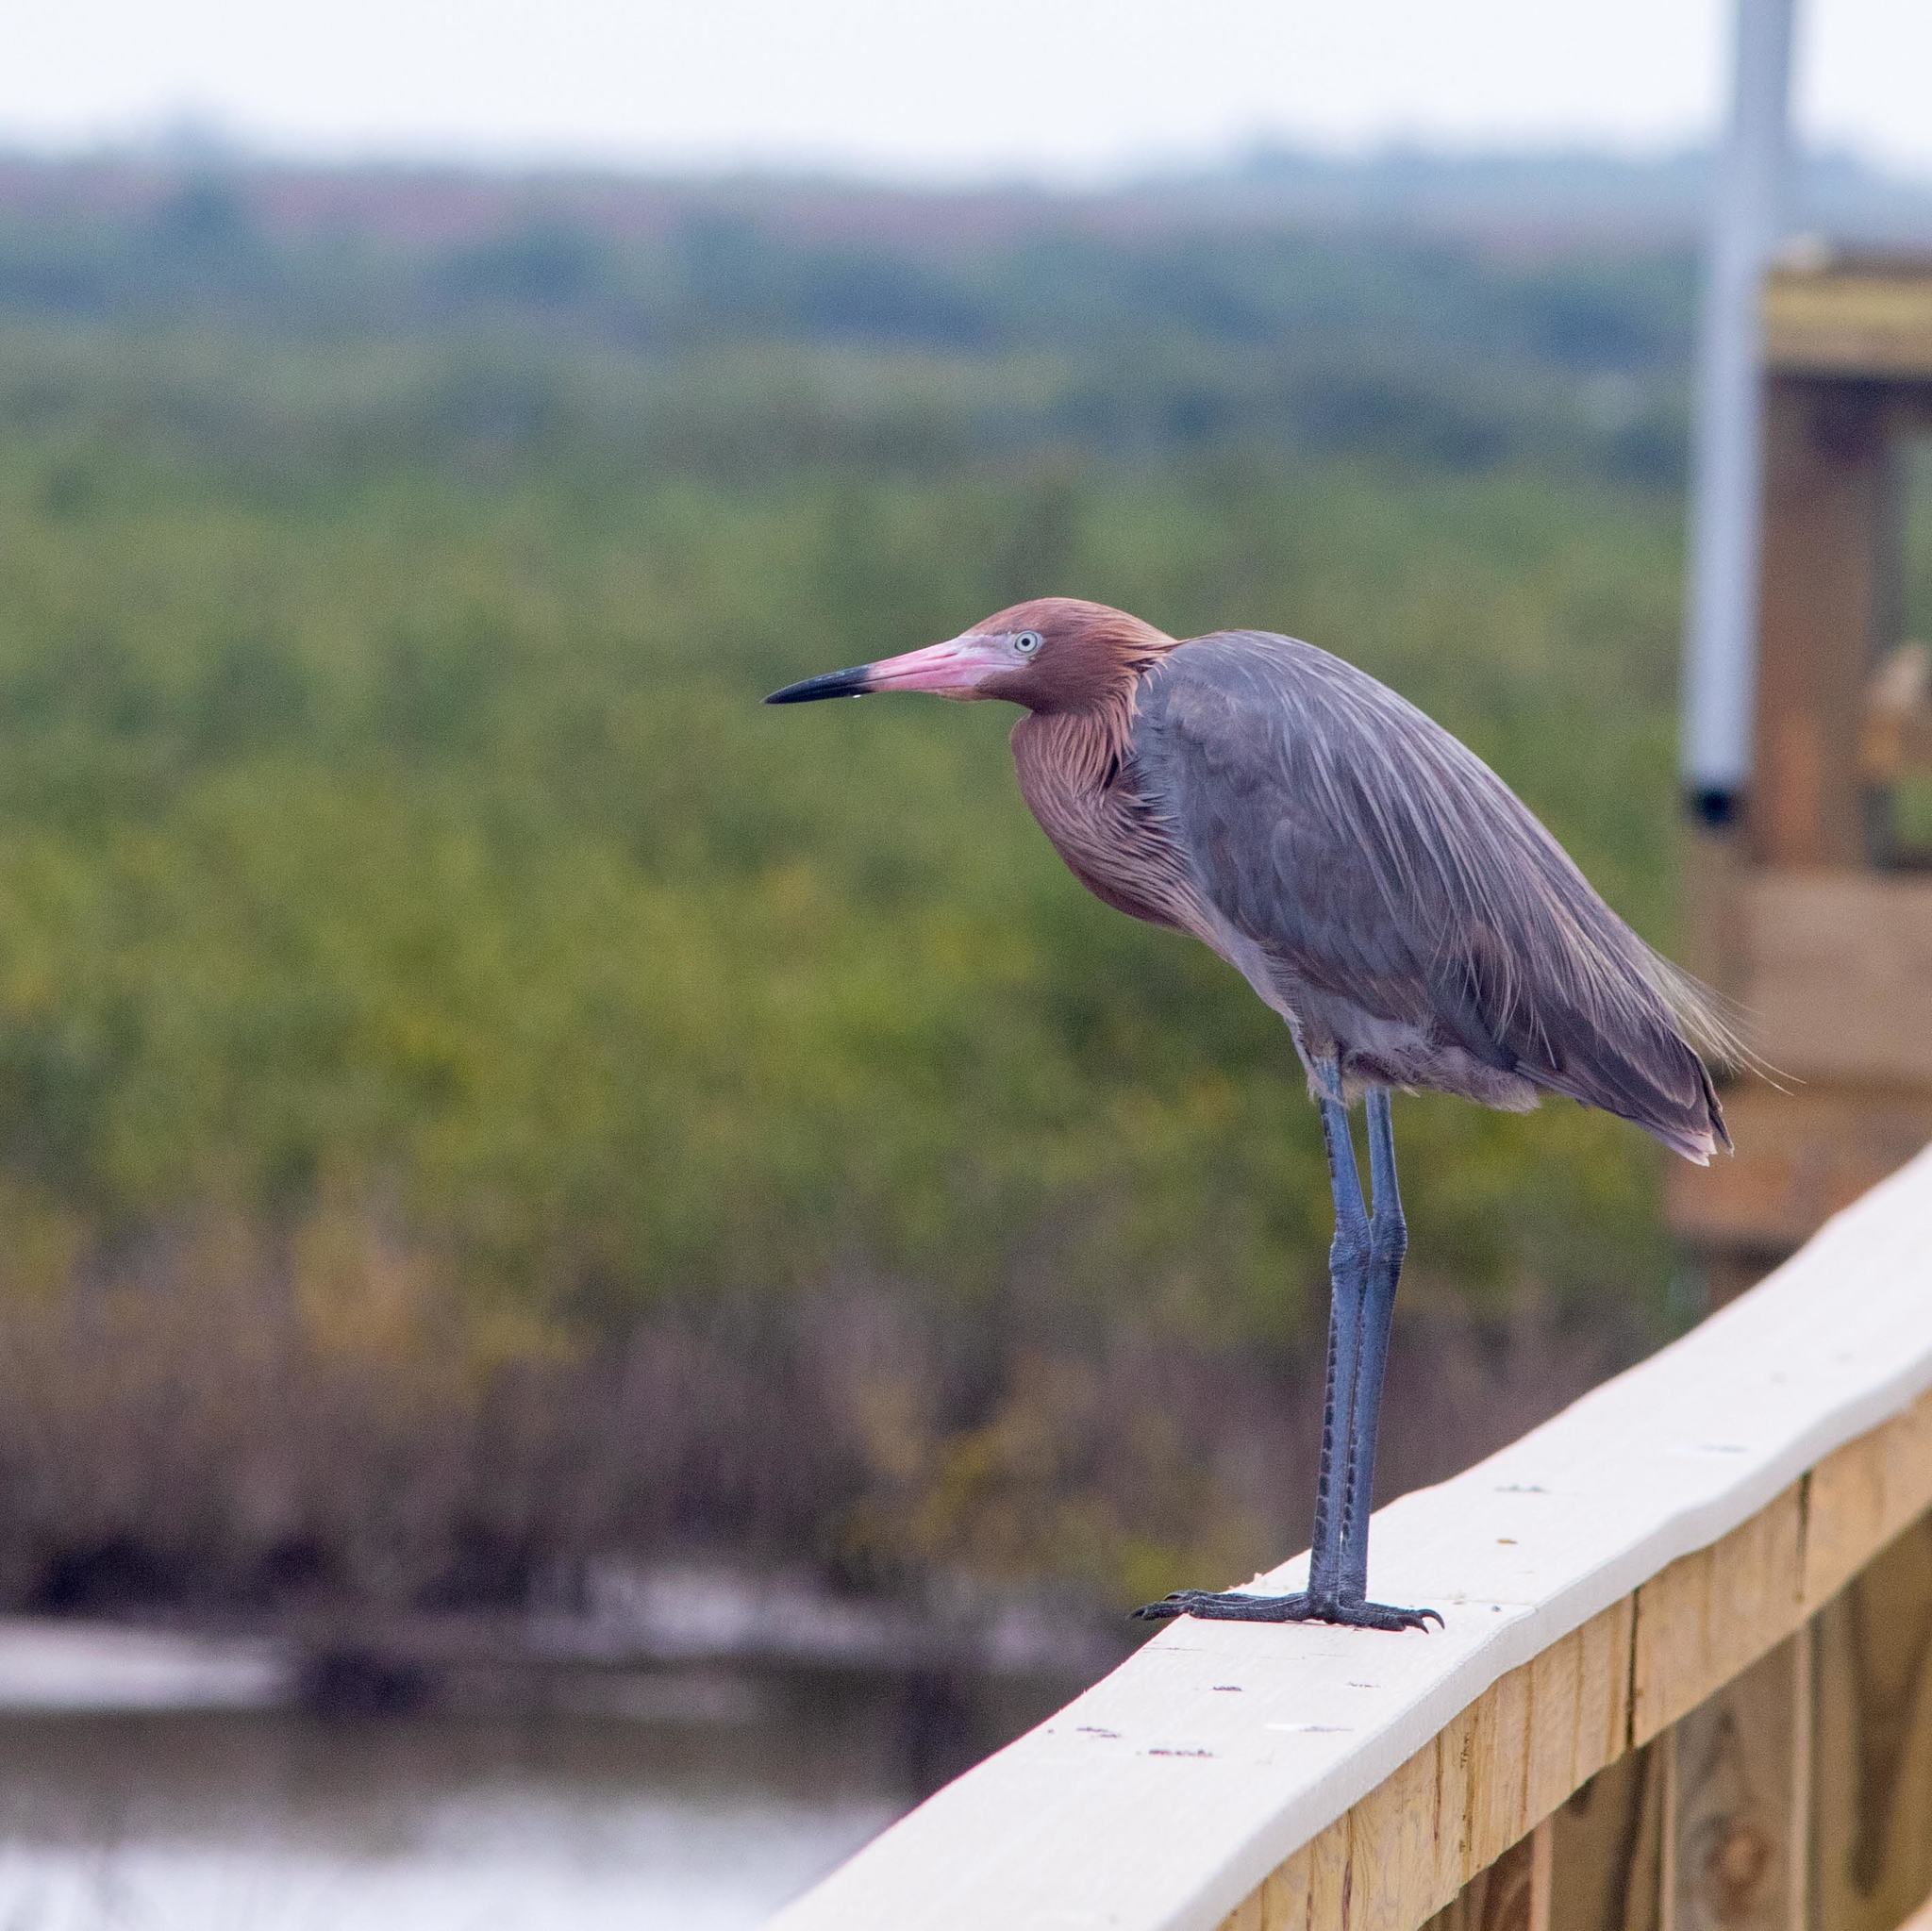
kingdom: Animalia
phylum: Chordata
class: Aves
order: Pelecaniformes
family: Ardeidae
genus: Egretta
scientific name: Egretta rufescens
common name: Reddish egret
